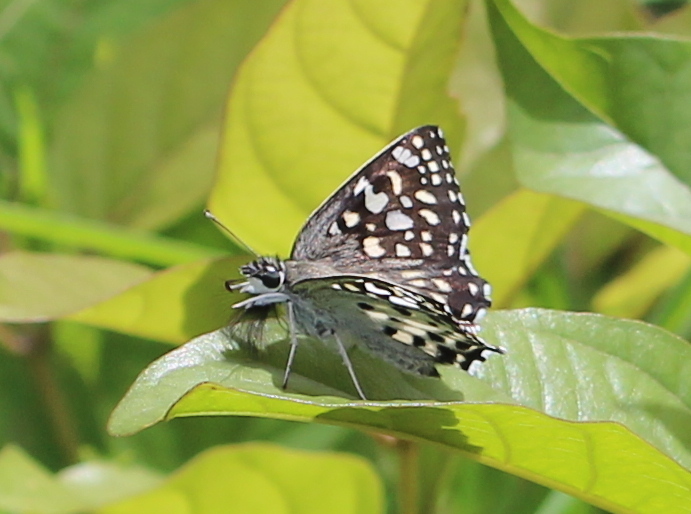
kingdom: Animalia
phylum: Arthropoda
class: Insecta
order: Lepidoptera
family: Hesperiidae
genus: Caprona
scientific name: Caprona agama
